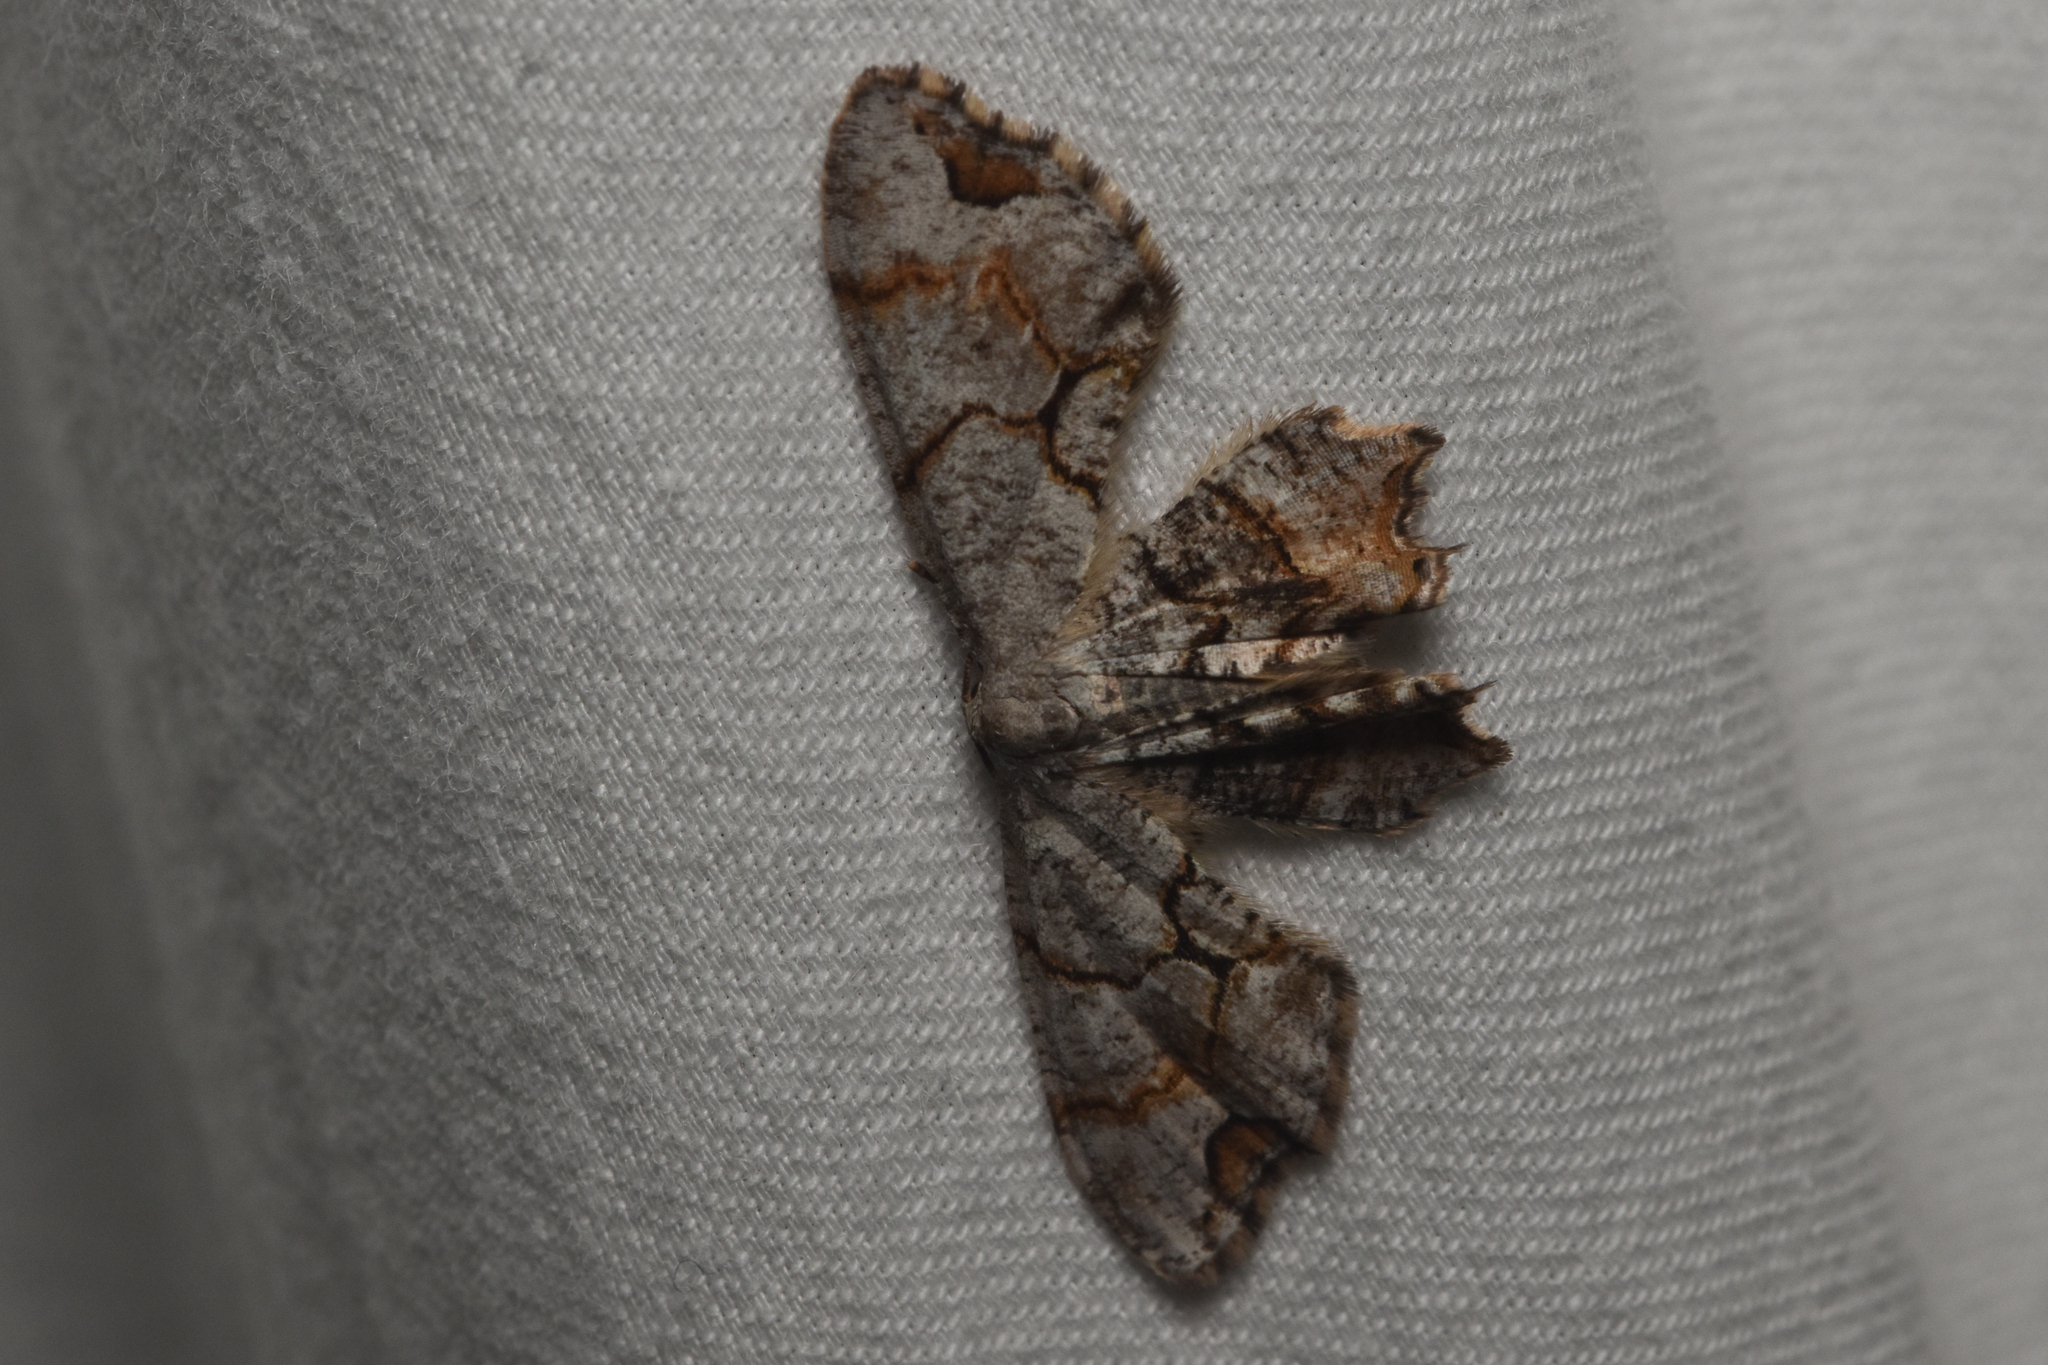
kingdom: Animalia
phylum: Arthropoda
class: Insecta
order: Lepidoptera
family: Uraniidae
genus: Epiplema
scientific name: Epiplema Callizzia amorata
